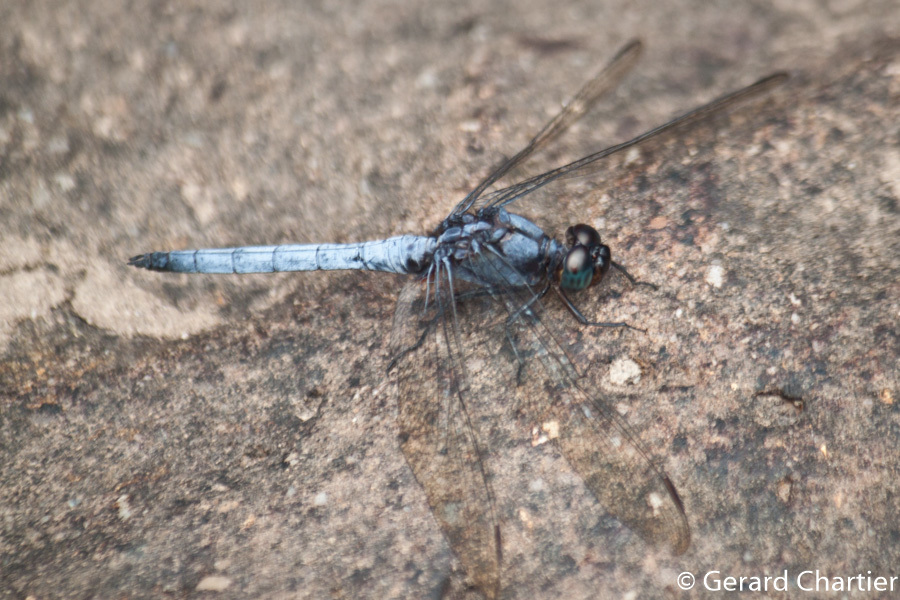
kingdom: Animalia
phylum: Arthropoda
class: Insecta
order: Odonata
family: Libellulidae
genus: Orthetrum
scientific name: Orthetrum glaucum
